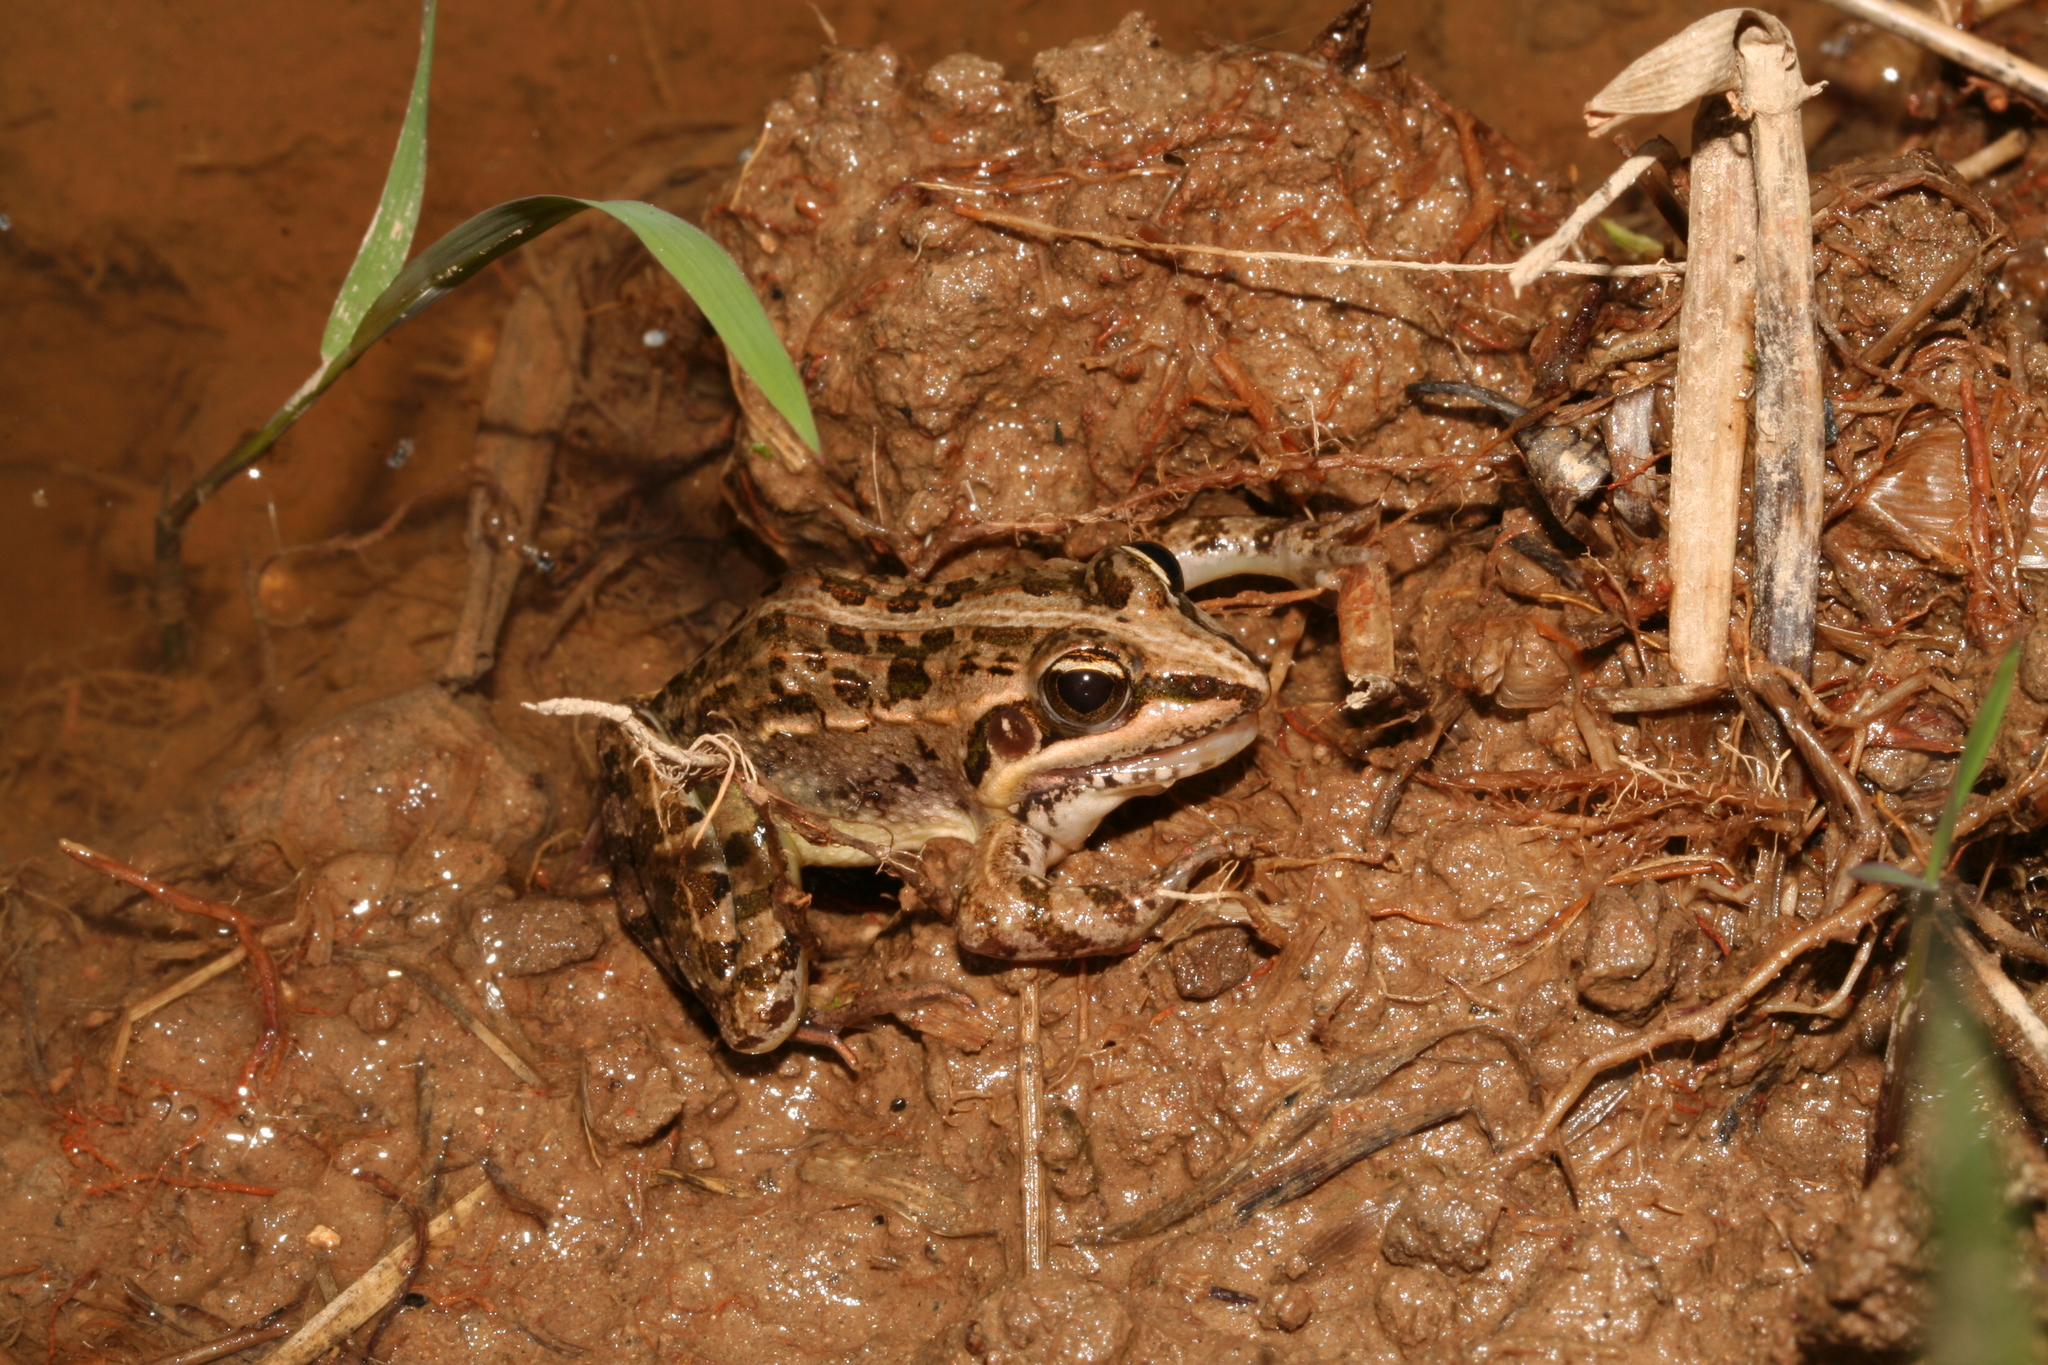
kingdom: Animalia
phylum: Chordata
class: Amphibia
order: Anura
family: Ptychadenidae
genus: Ptychadena
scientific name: Ptychadena mascareniensis
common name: Mascarene grass frog
